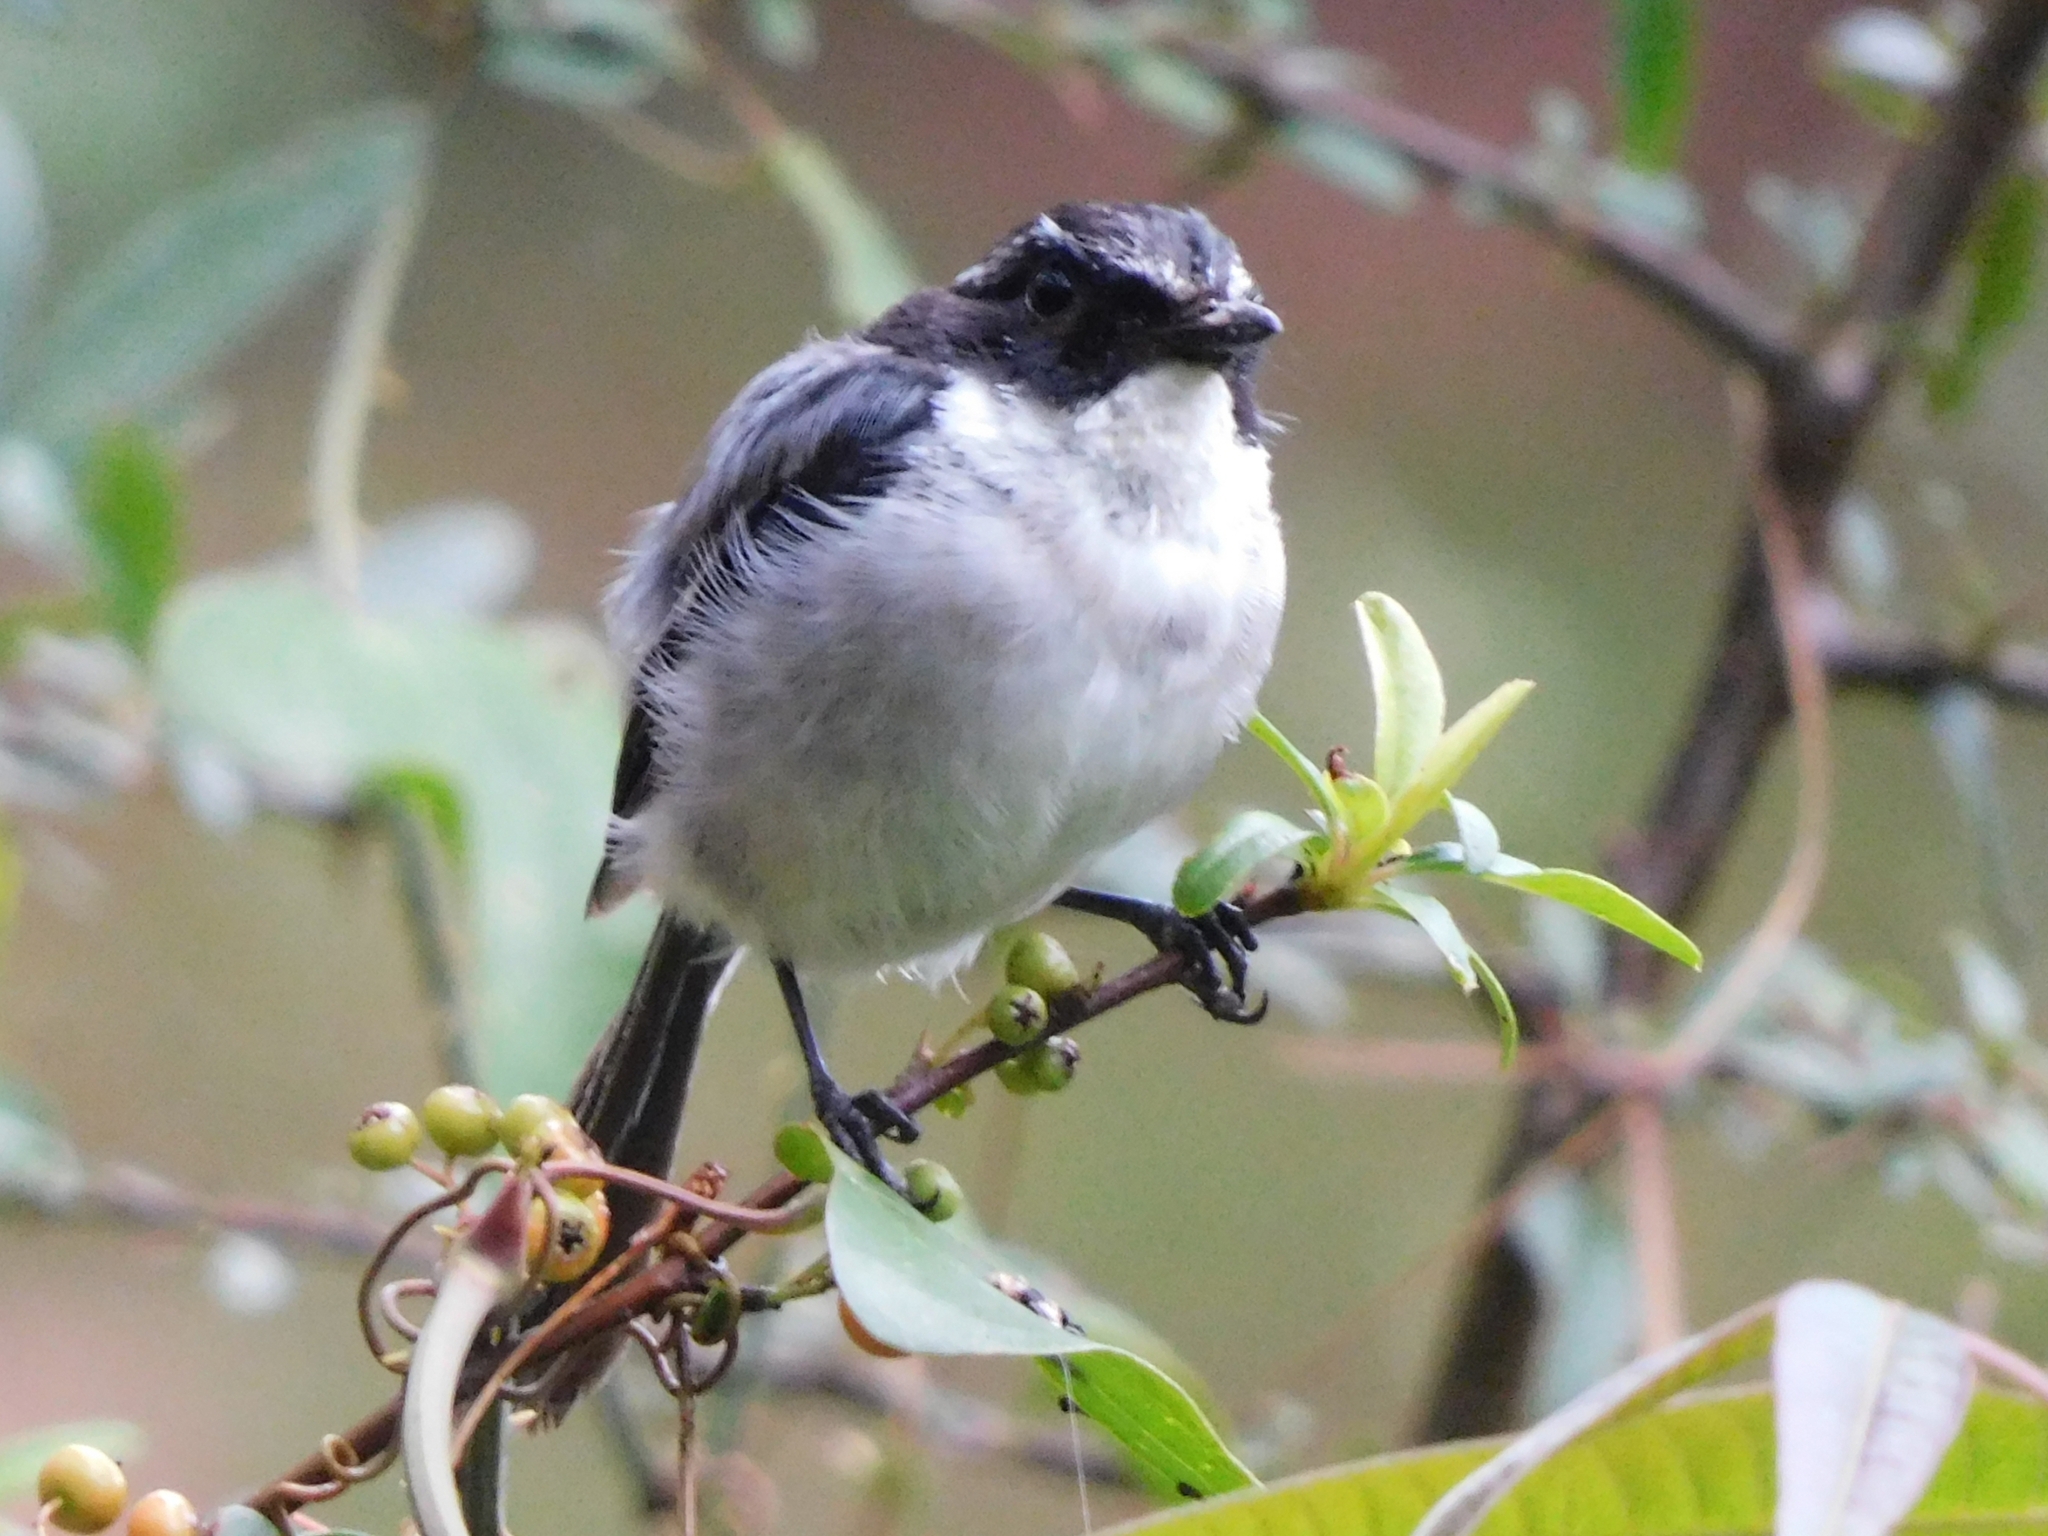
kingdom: Animalia
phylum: Chordata
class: Aves
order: Passeriformes
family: Muscicapidae
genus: Saxicola
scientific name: Saxicola ferreus
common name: Grey bush chat
